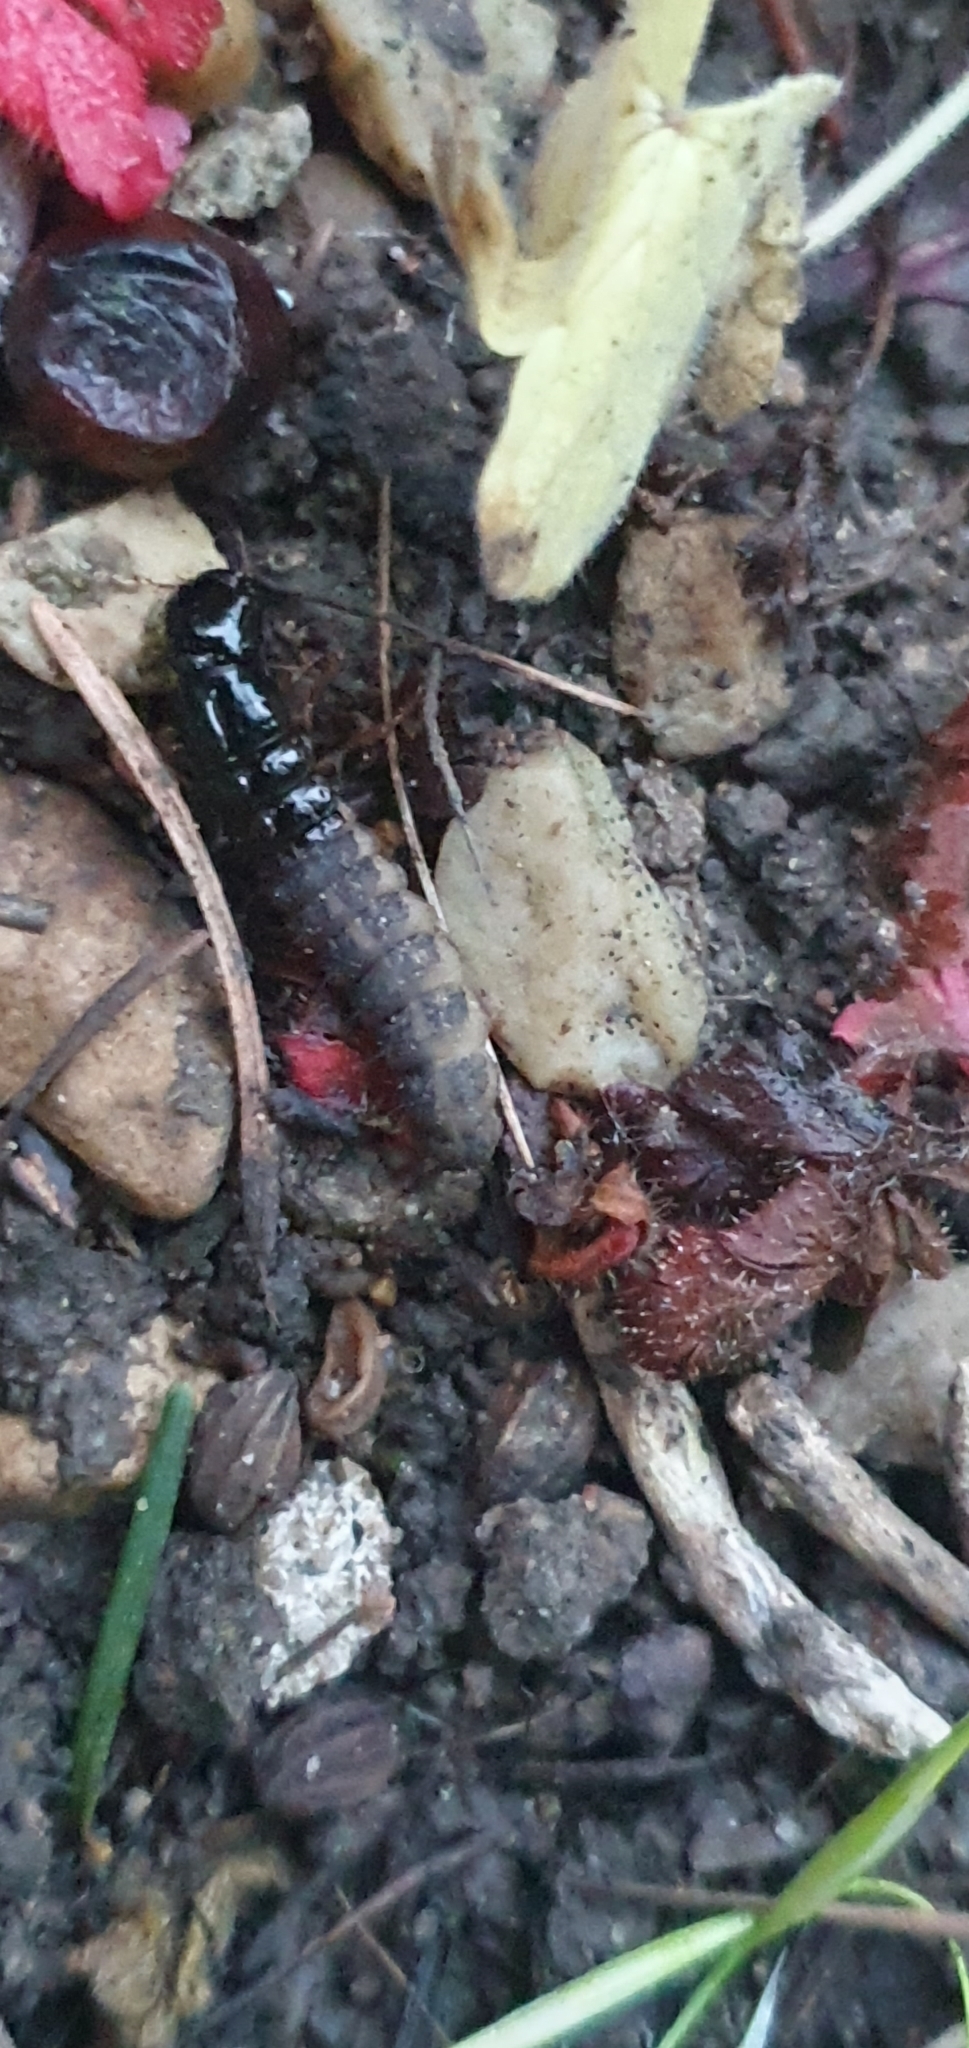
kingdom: Animalia
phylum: Arthropoda
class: Insecta
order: Coleoptera
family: Staphylinidae
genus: Ocypus
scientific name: Ocypus olens
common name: Devil's coach-horse
